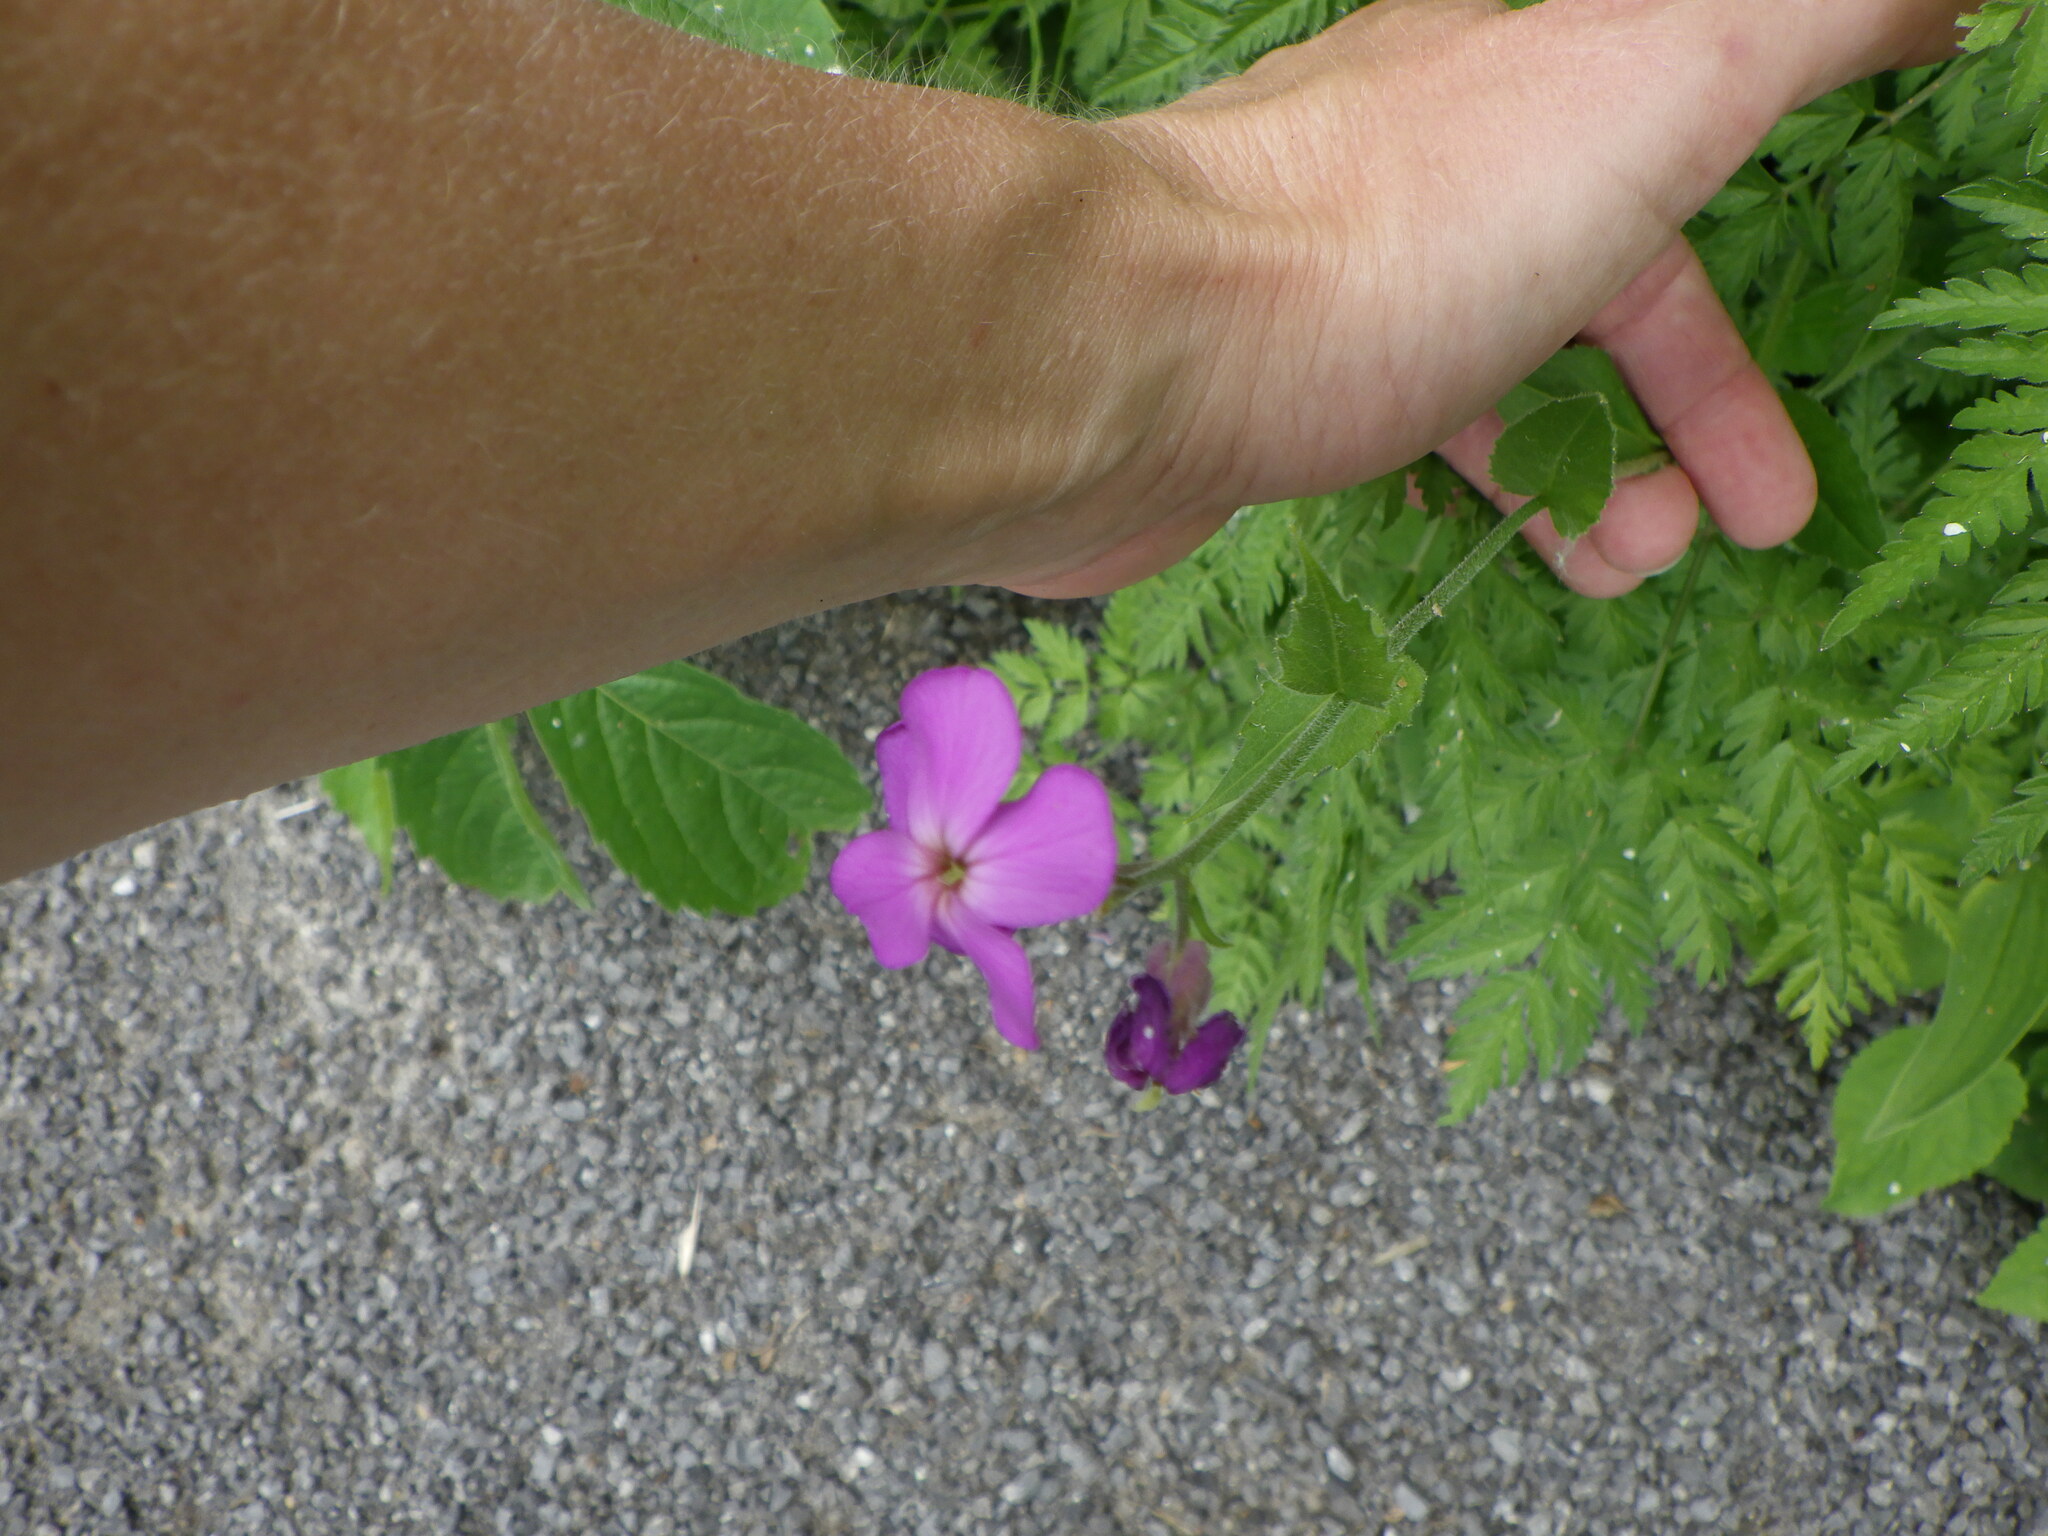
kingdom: Plantae
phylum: Tracheophyta
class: Magnoliopsida
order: Brassicales
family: Brassicaceae
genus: Hesperis
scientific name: Hesperis matronalis
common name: Dame's-violet
